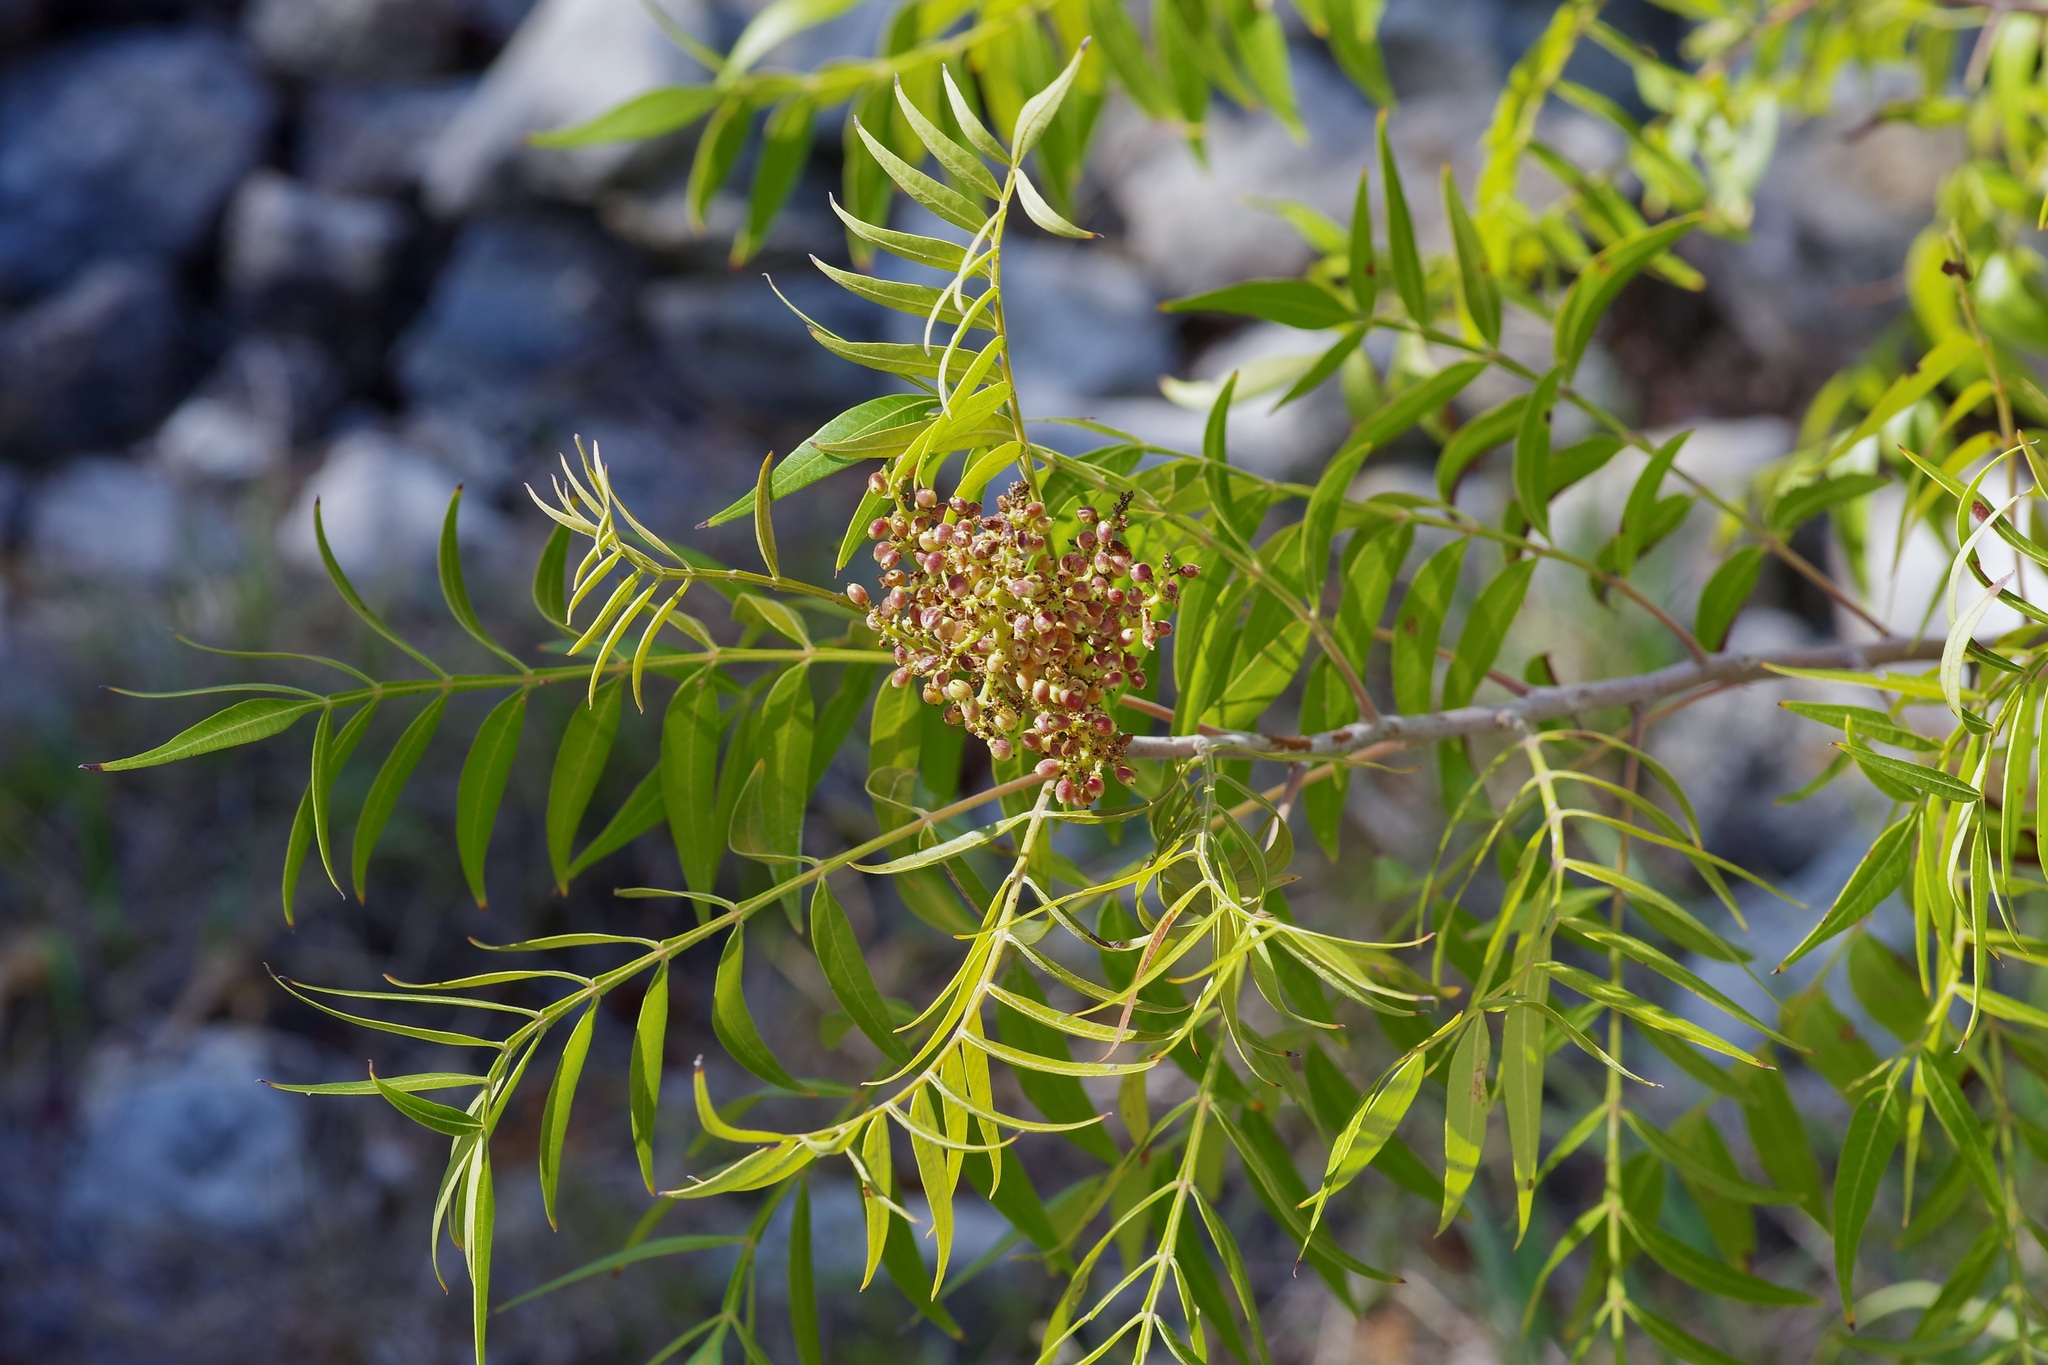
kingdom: Plantae
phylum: Tracheophyta
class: Magnoliopsida
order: Sapindales
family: Anacardiaceae
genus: Rhus
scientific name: Rhus lanceolata
